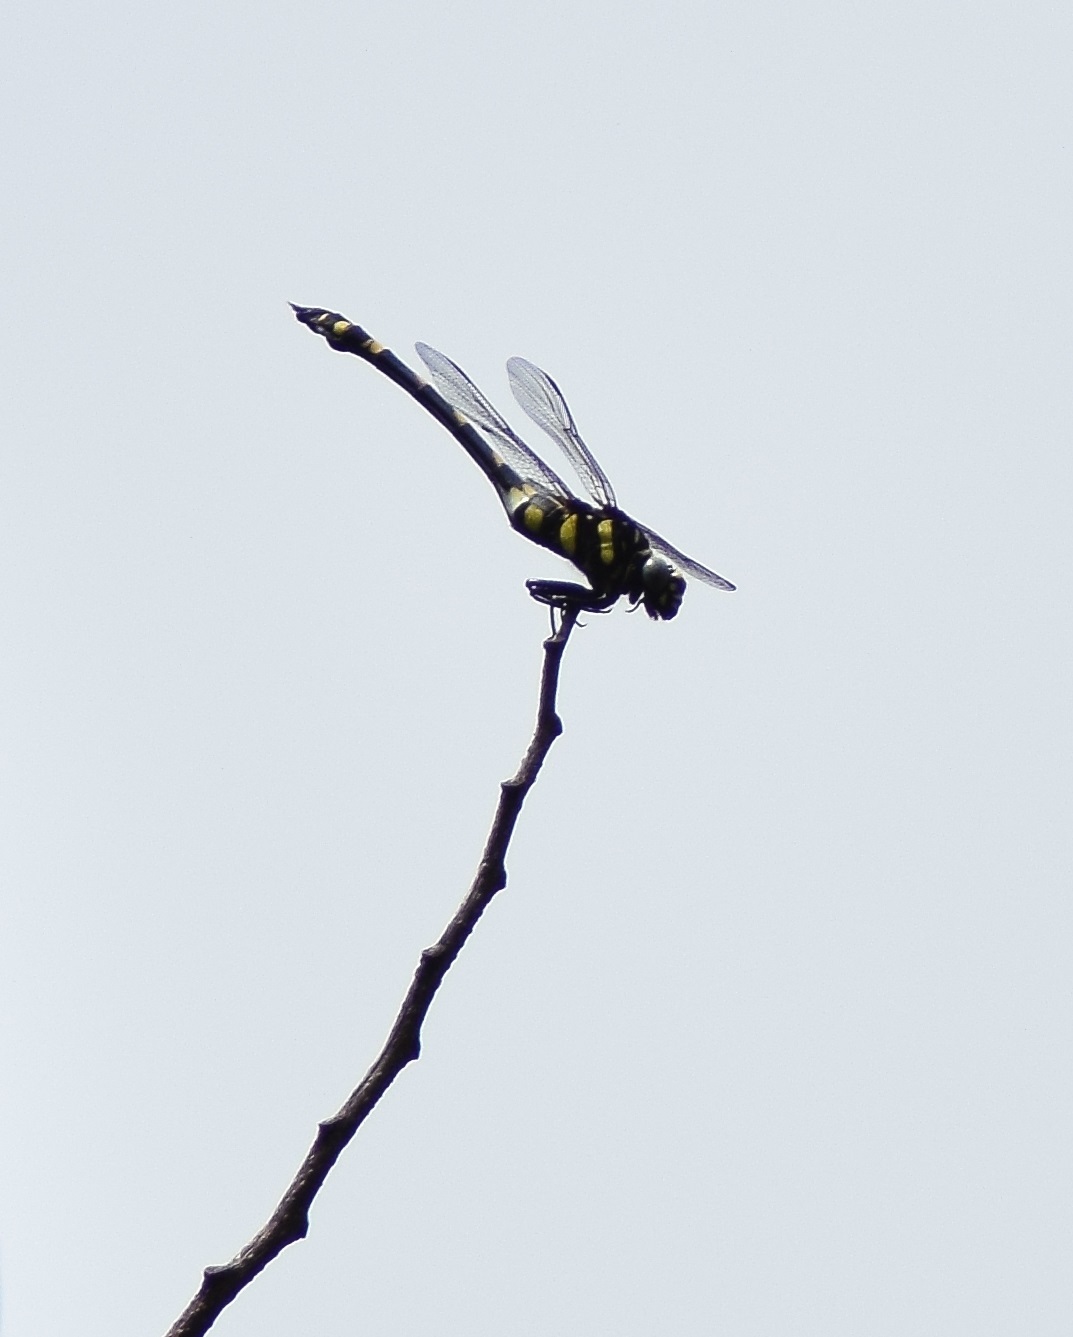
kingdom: Animalia
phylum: Arthropoda
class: Insecta
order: Odonata
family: Gomphidae
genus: Ictinogomphus
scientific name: Ictinogomphus rapax
